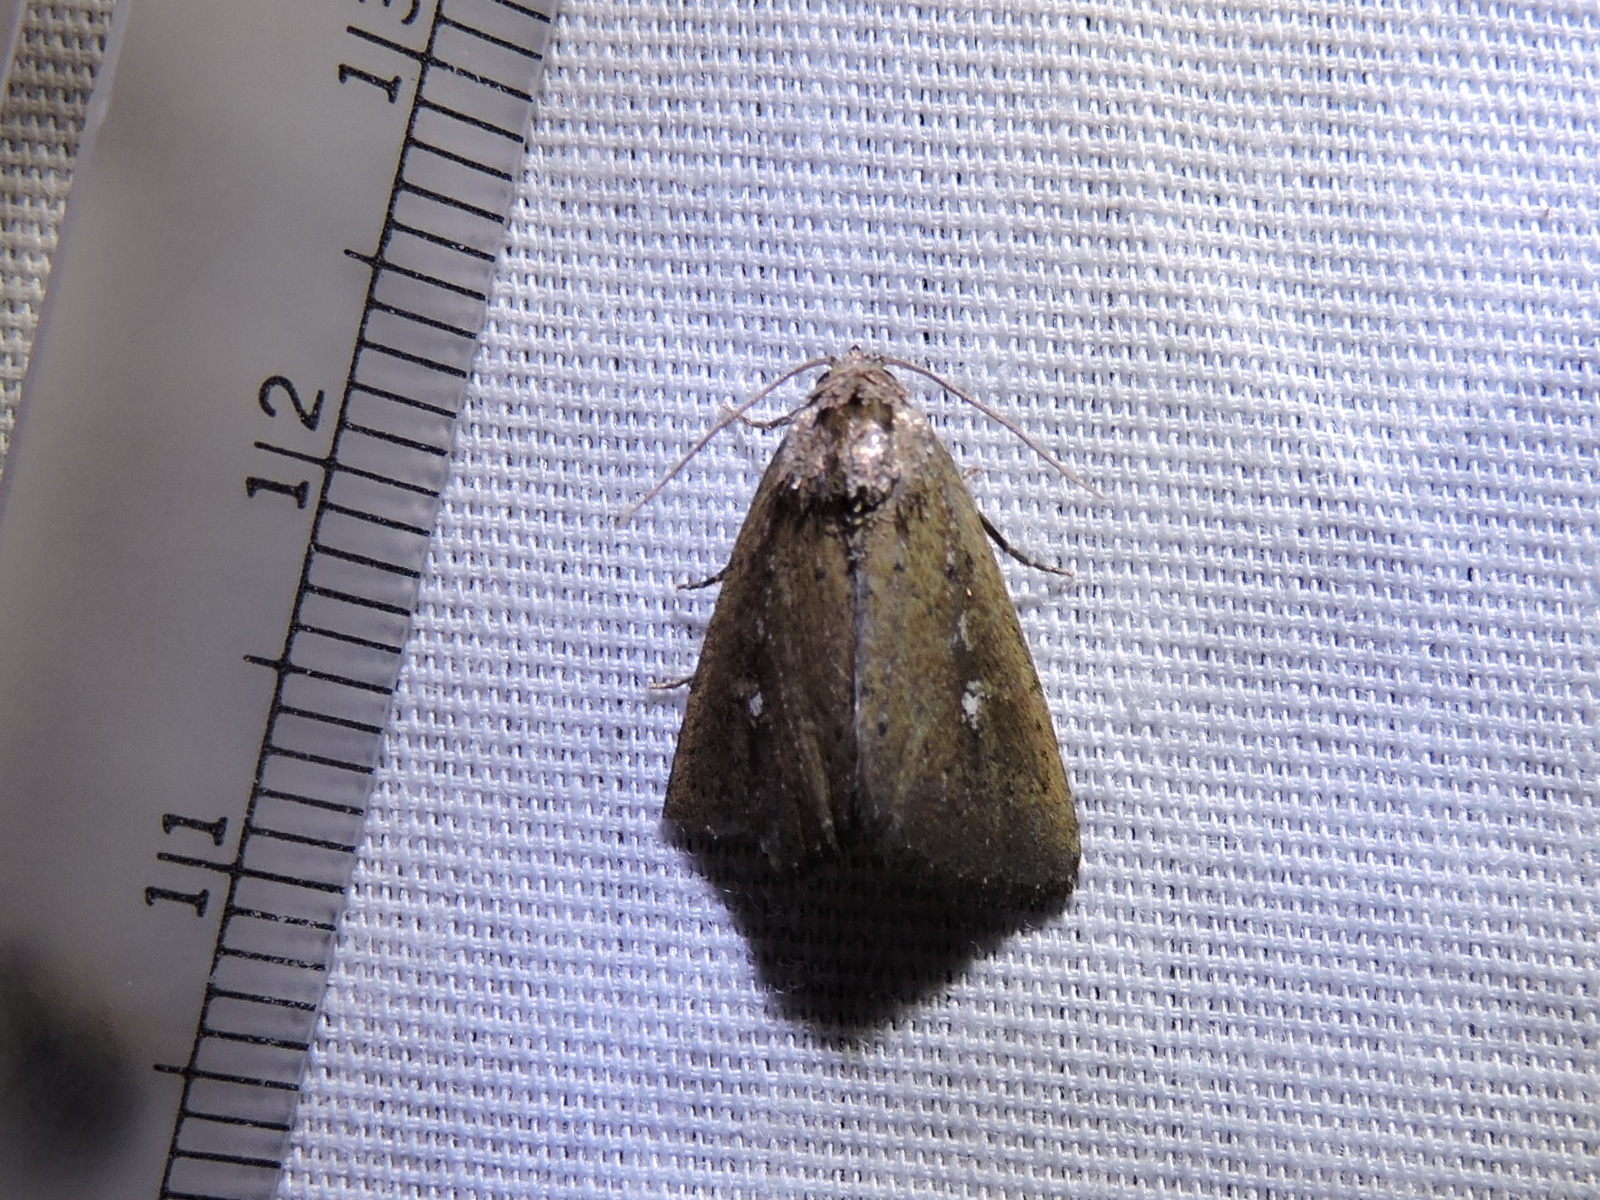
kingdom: Animalia
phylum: Arthropoda
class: Insecta
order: Lepidoptera
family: Noctuidae
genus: Condica
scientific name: Condica videns
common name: White-dotted groundling
